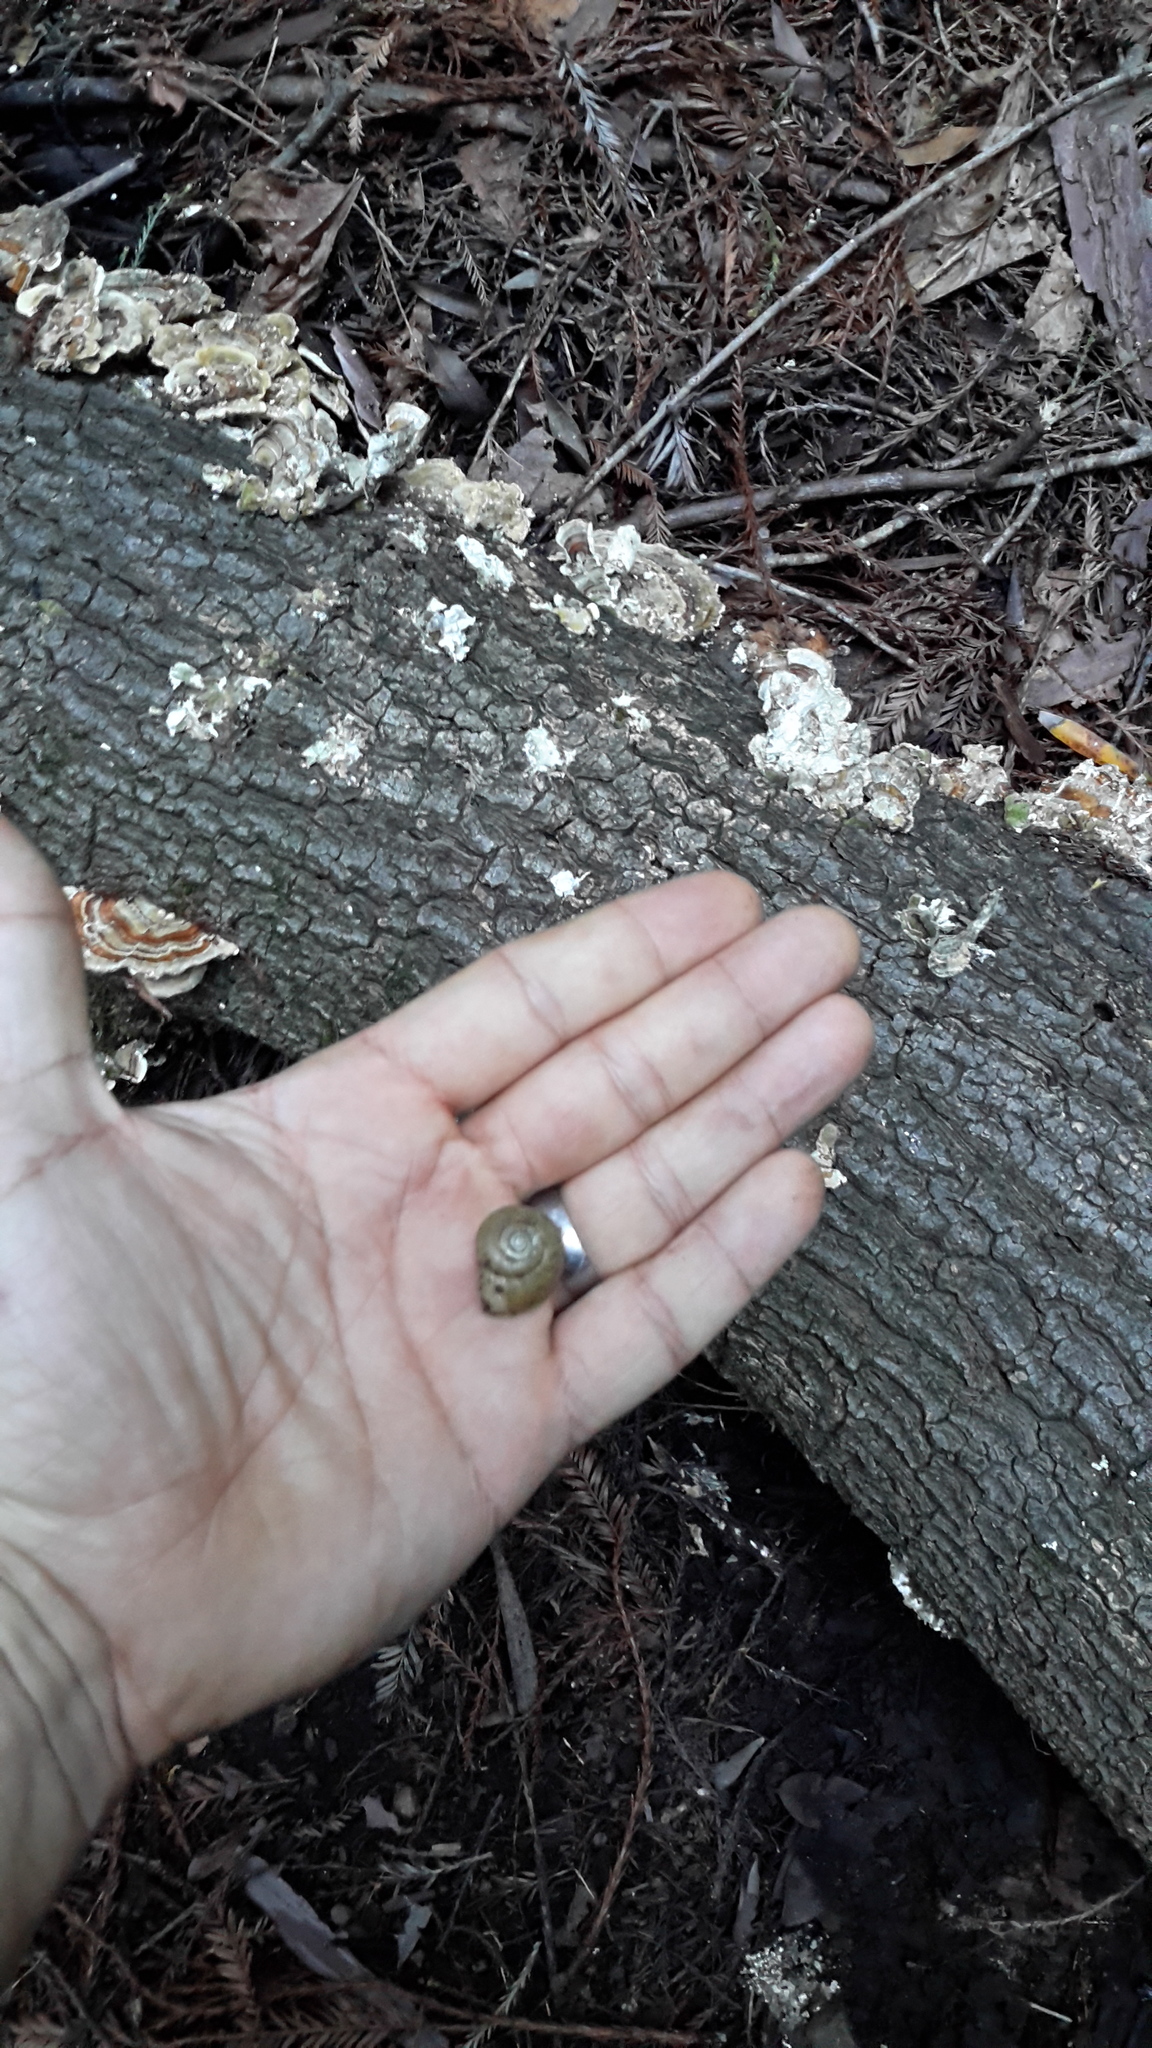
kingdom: Animalia
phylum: Mollusca
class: Gastropoda
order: Stylommatophora
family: Haplotrematidae
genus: Haplotrema
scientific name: Haplotrema minimum
